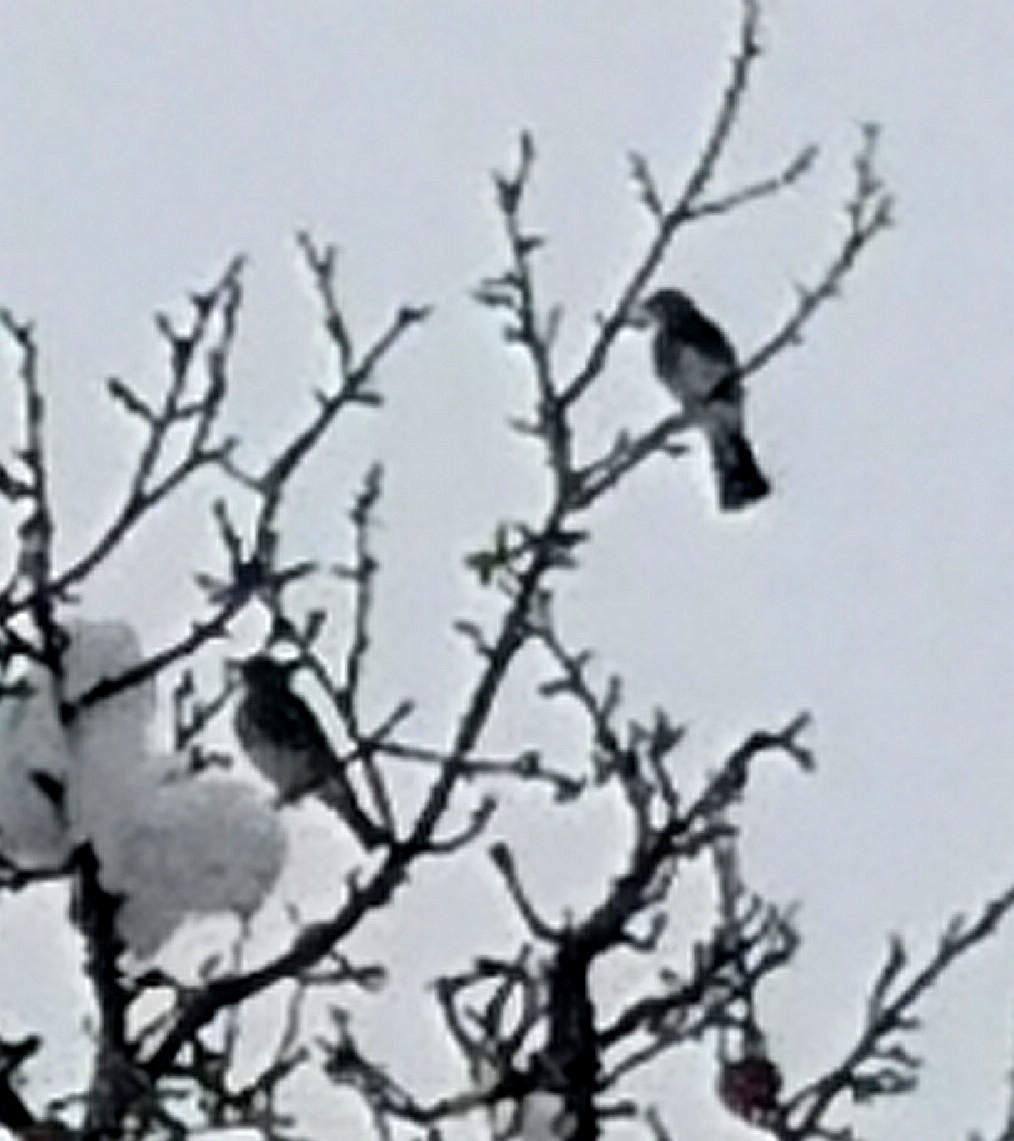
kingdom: Animalia
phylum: Chordata
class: Aves
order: Passeriformes
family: Turdidae
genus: Turdus
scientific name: Turdus pilaris
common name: Fieldfare
